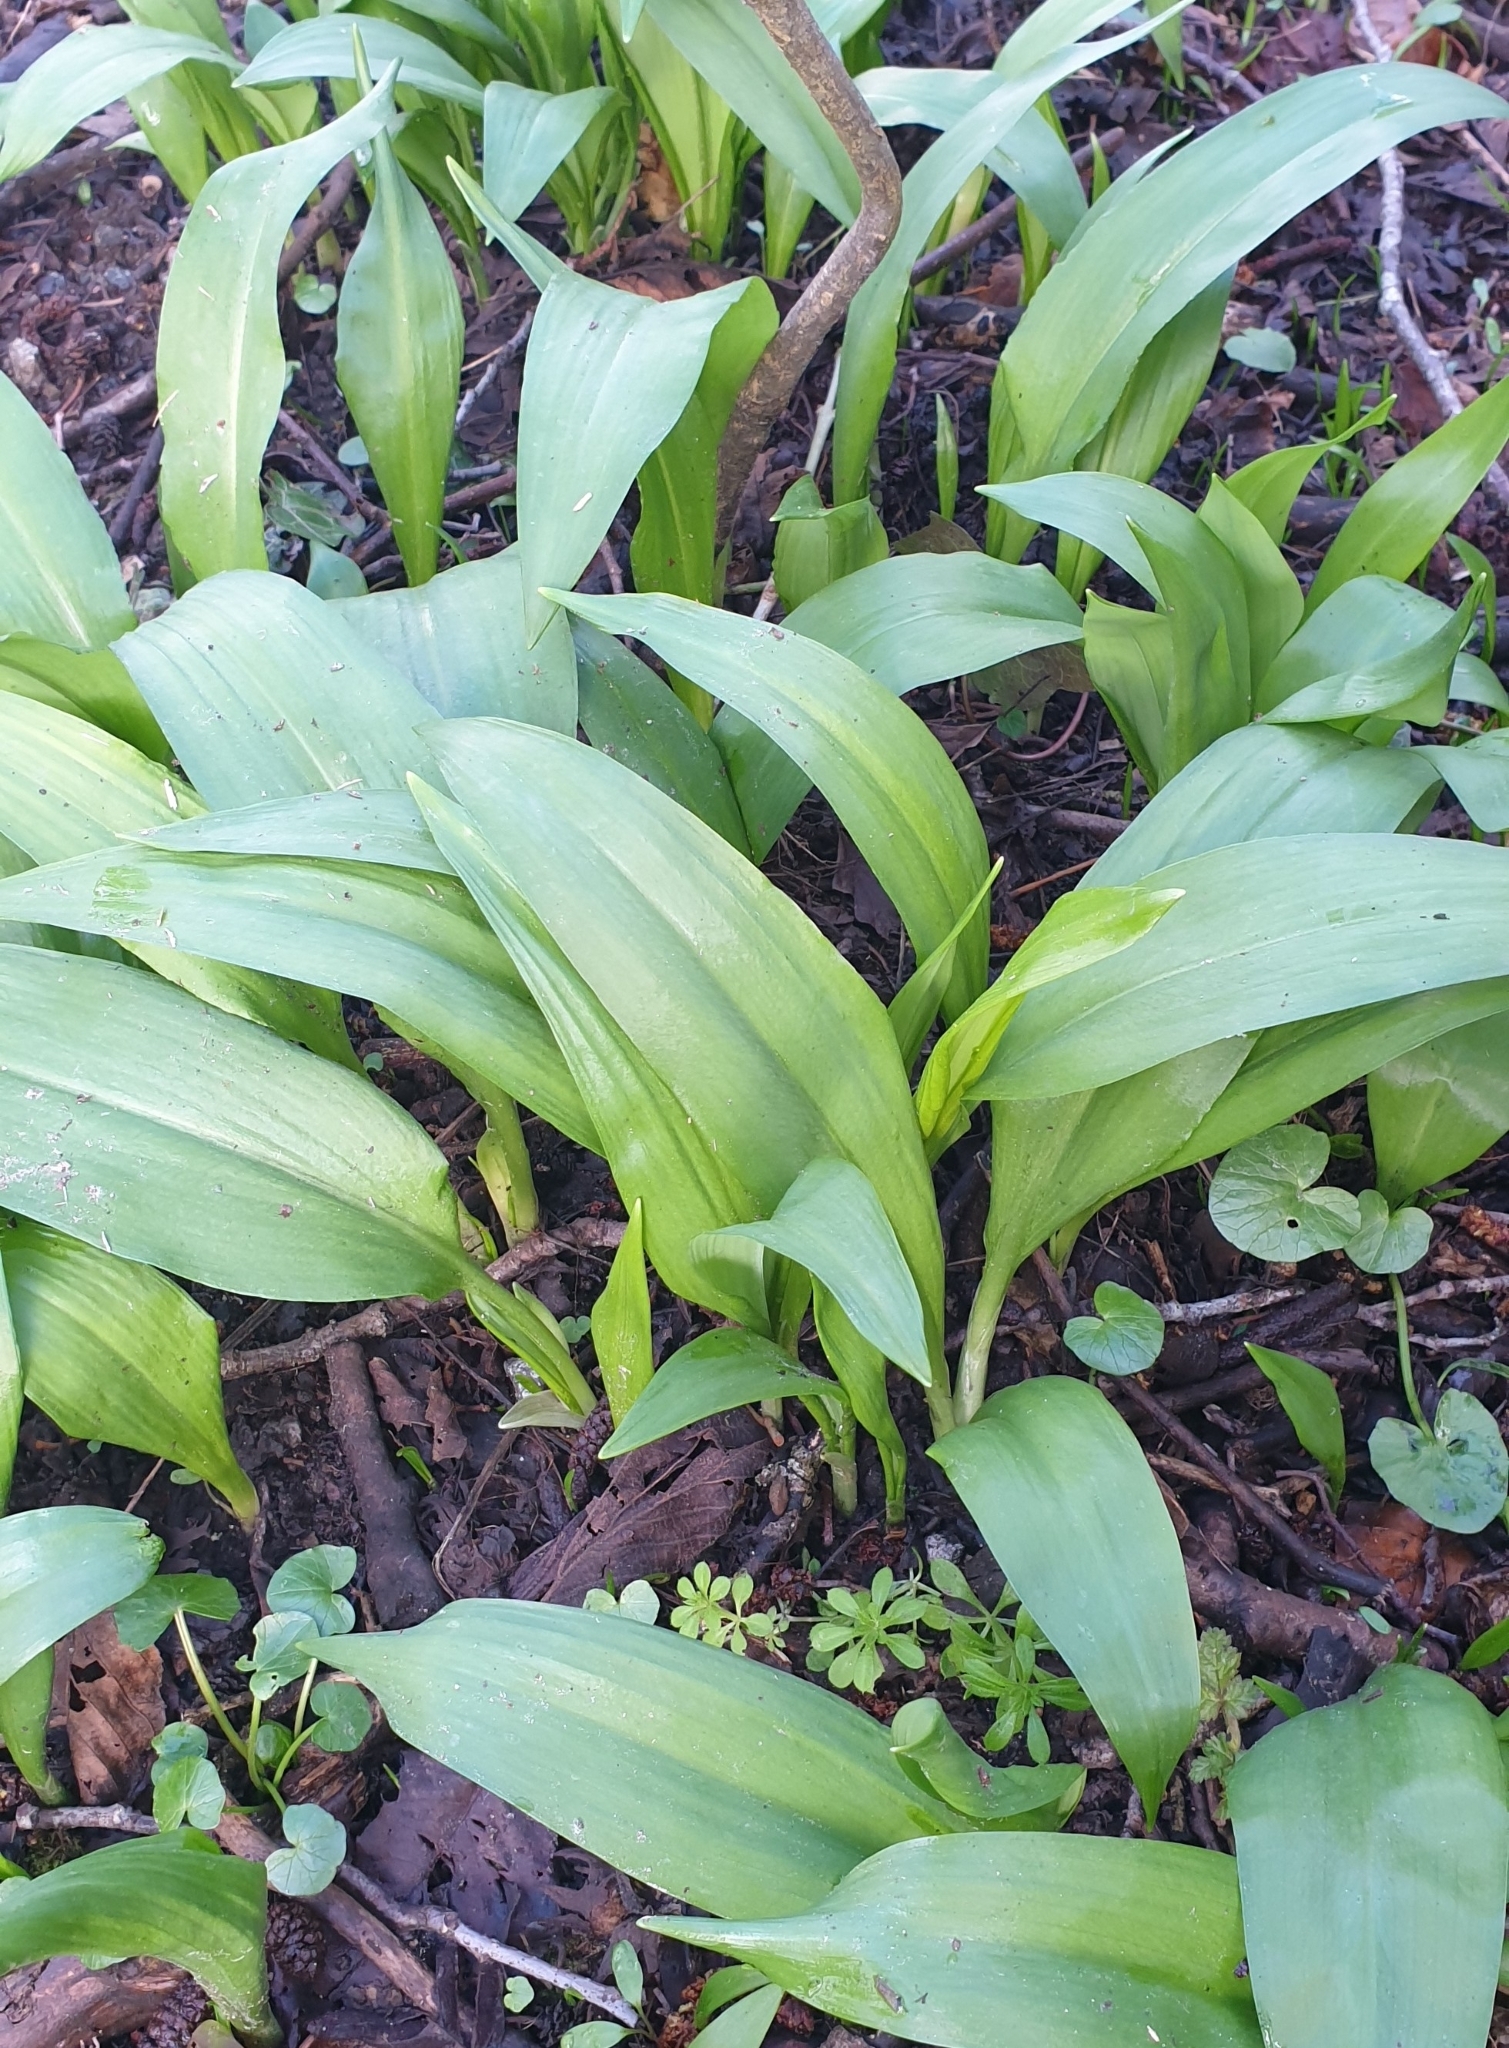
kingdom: Plantae
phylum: Tracheophyta
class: Liliopsida
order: Asparagales
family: Amaryllidaceae
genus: Allium
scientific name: Allium ursinum
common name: Ramsons
